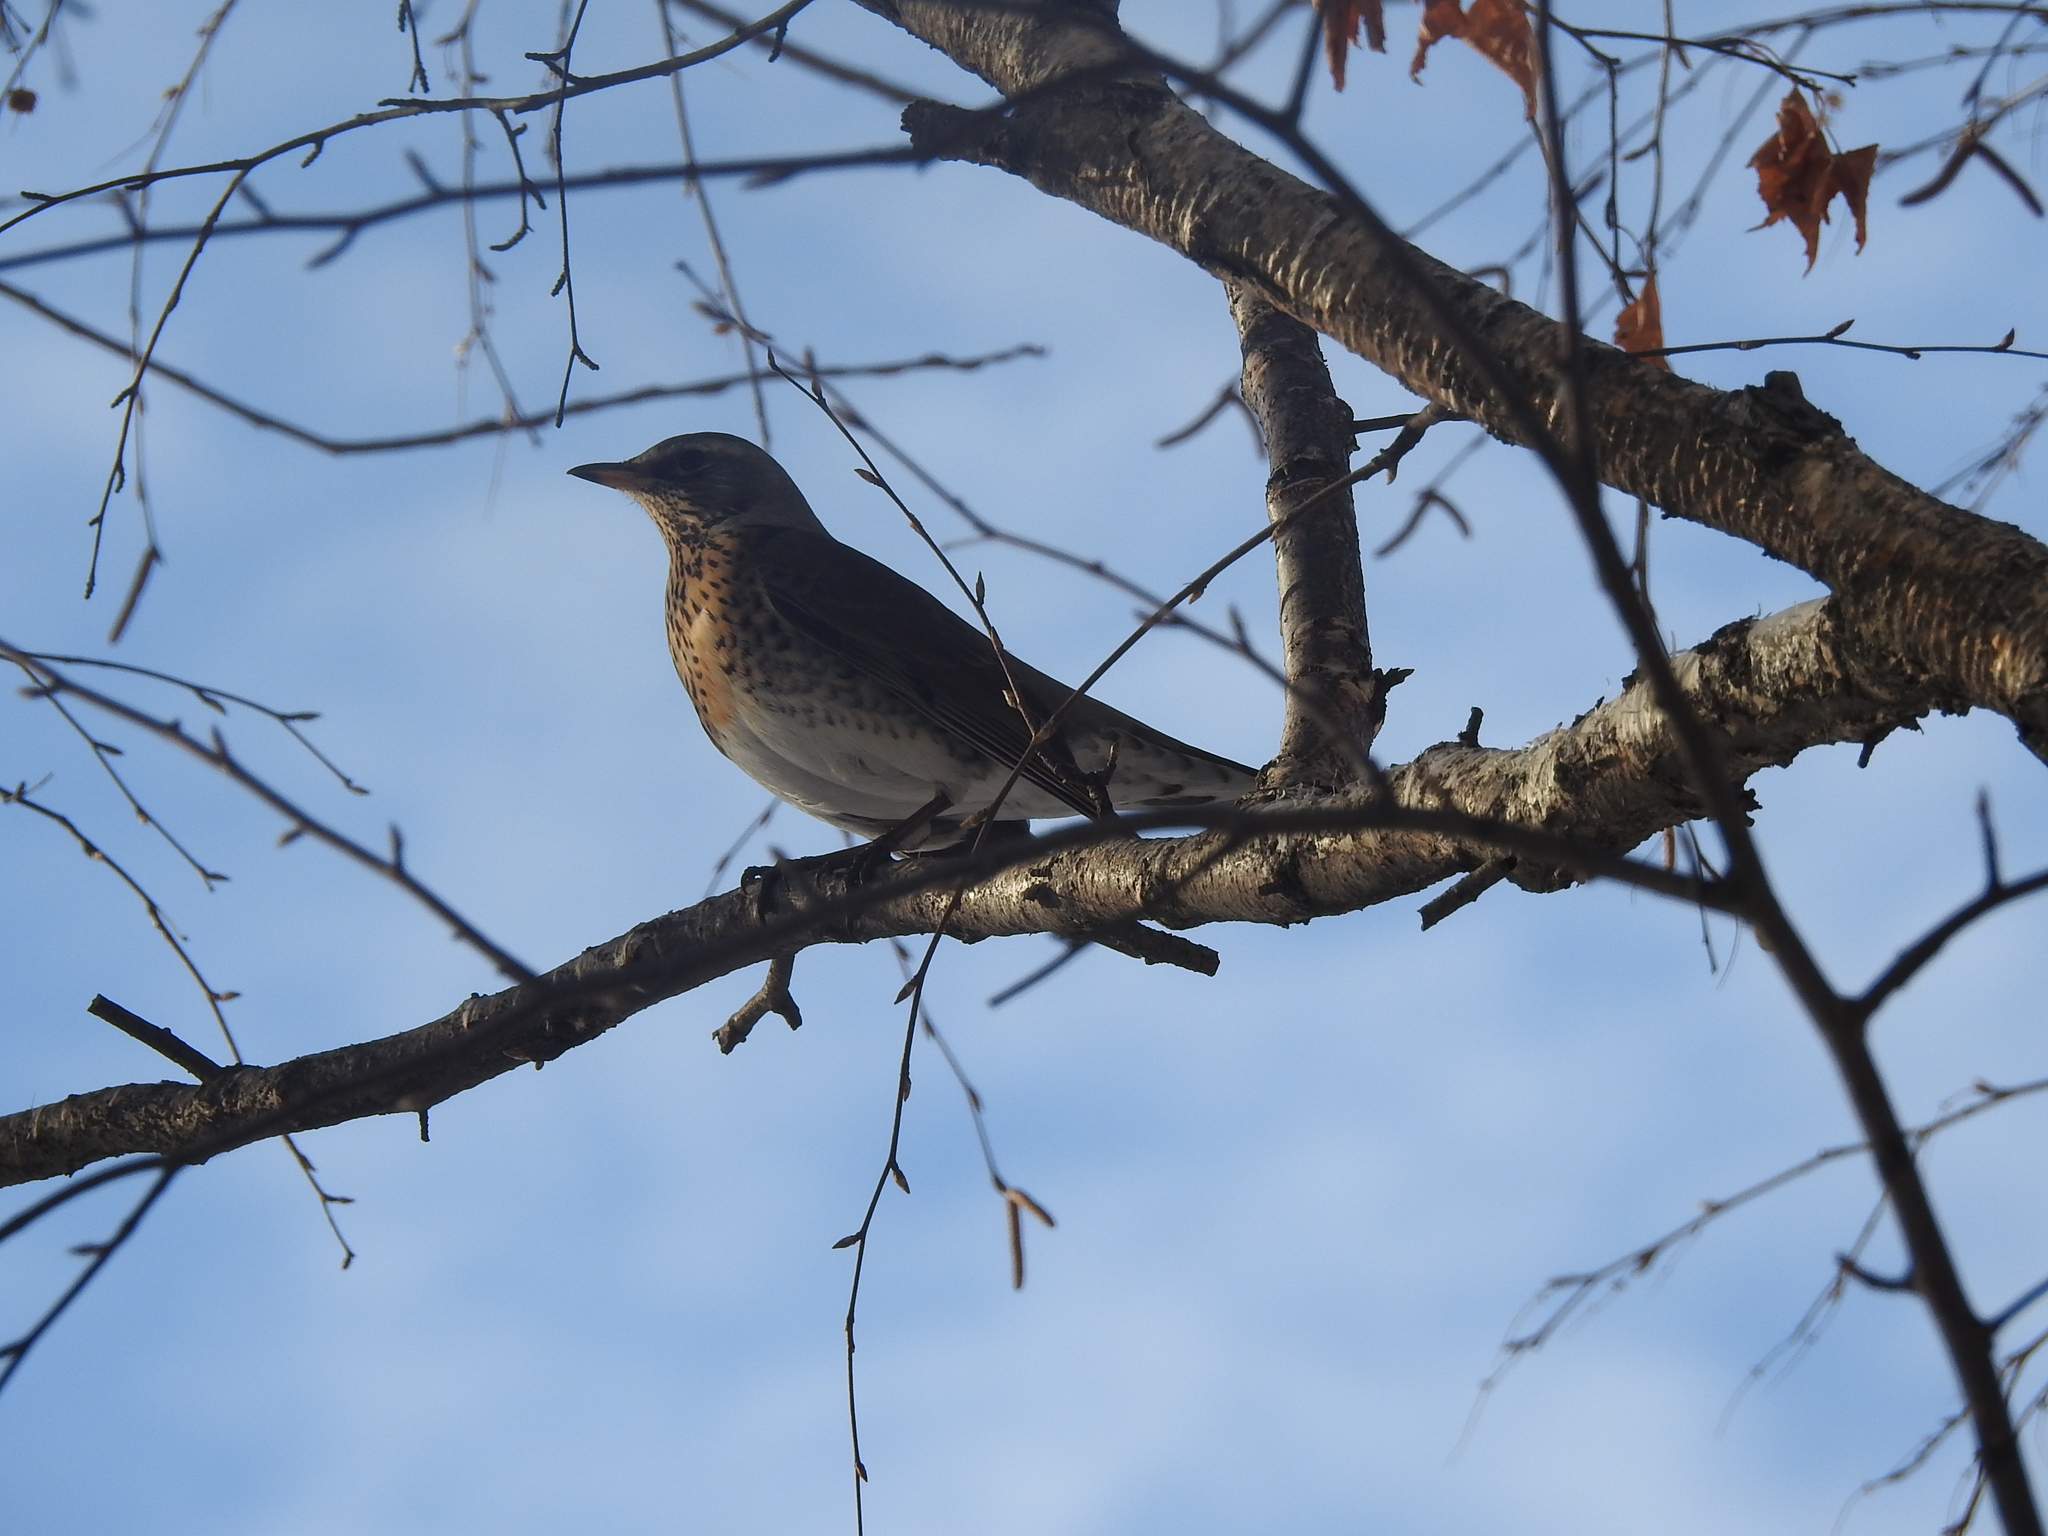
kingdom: Animalia
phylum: Chordata
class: Aves
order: Passeriformes
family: Turdidae
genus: Turdus
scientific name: Turdus pilaris
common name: Fieldfare
